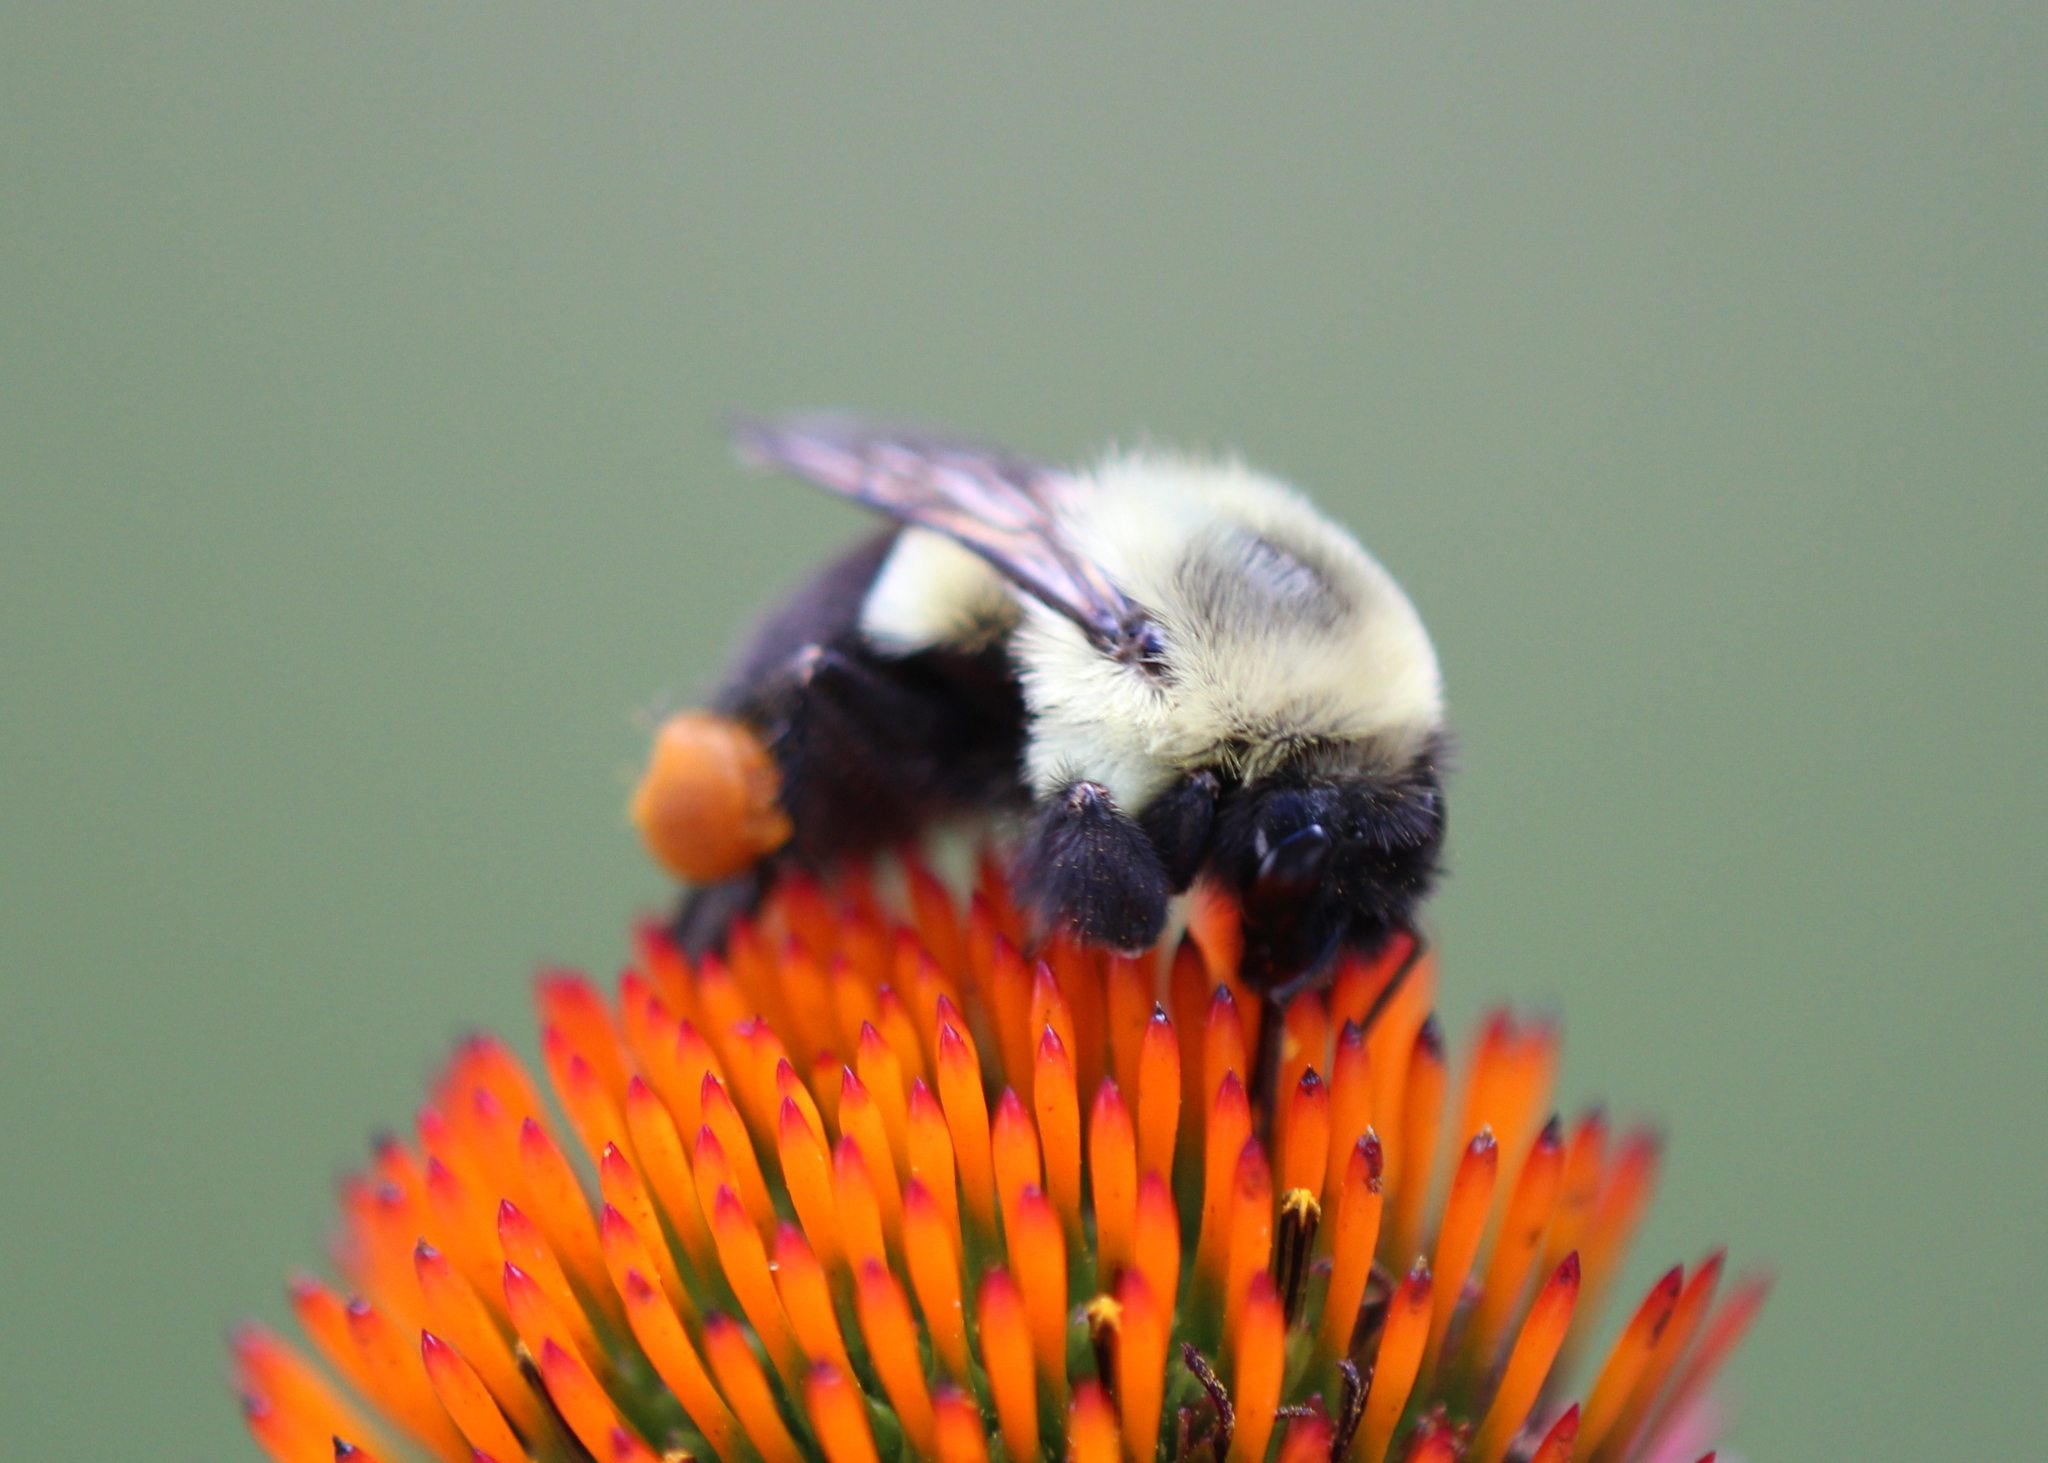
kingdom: Animalia
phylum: Arthropoda
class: Insecta
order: Hymenoptera
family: Apidae
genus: Bombus
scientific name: Bombus impatiens
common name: Common eastern bumble bee
